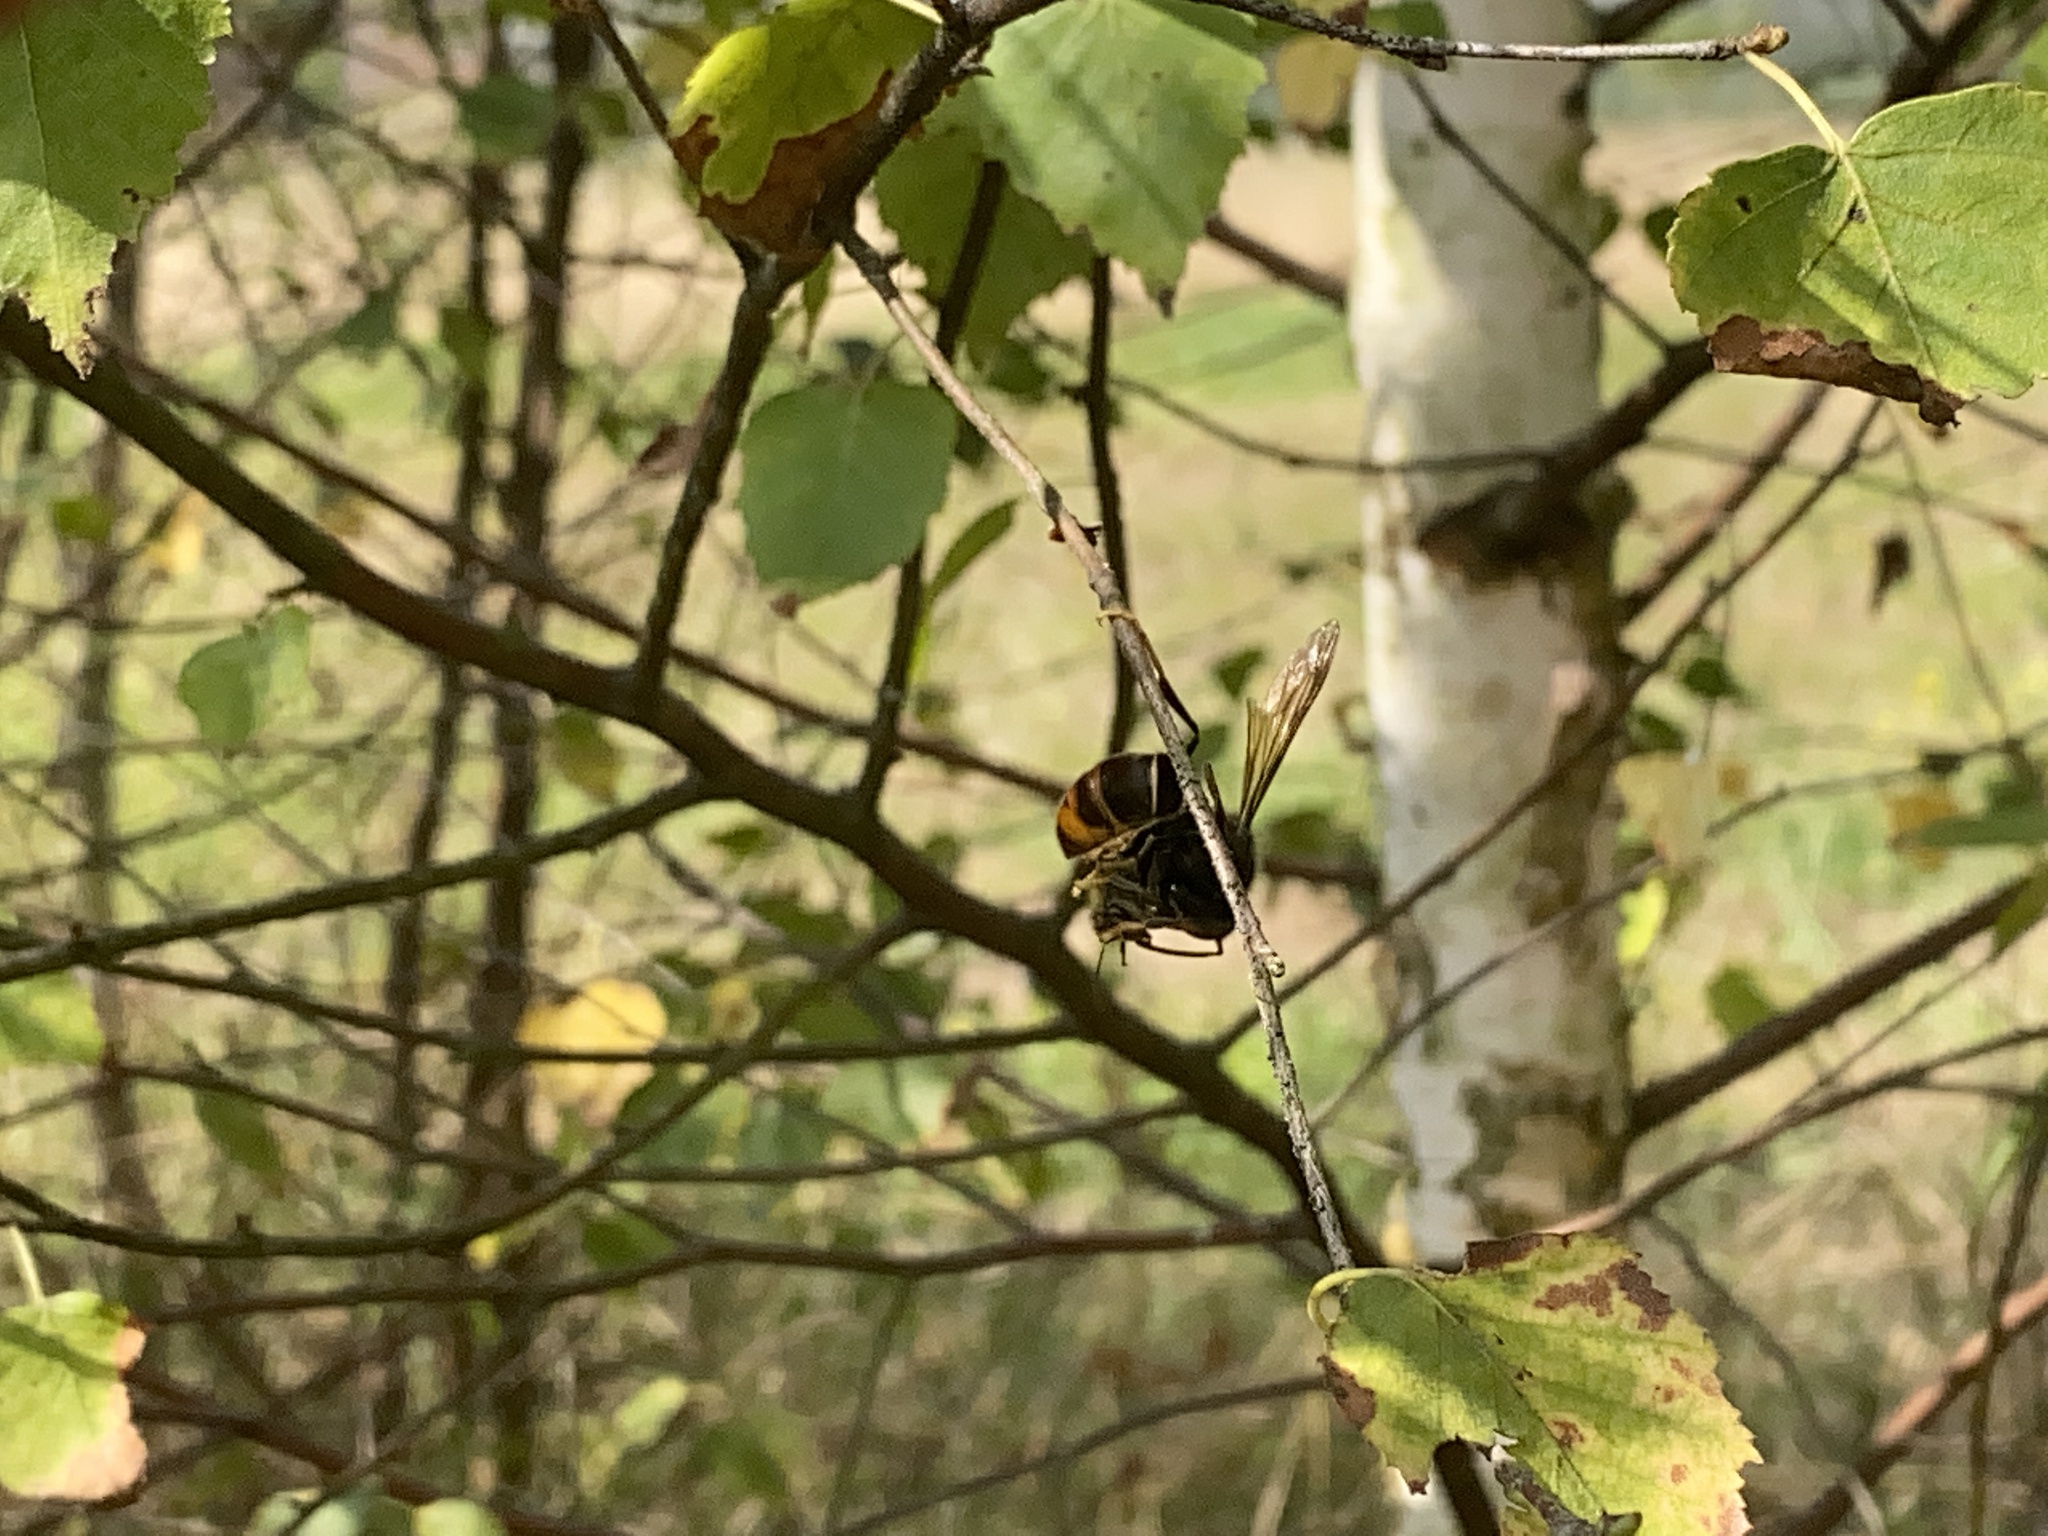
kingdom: Animalia
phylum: Arthropoda
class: Insecta
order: Hymenoptera
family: Vespidae
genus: Vespa
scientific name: Vespa velutina
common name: Asian hornet
